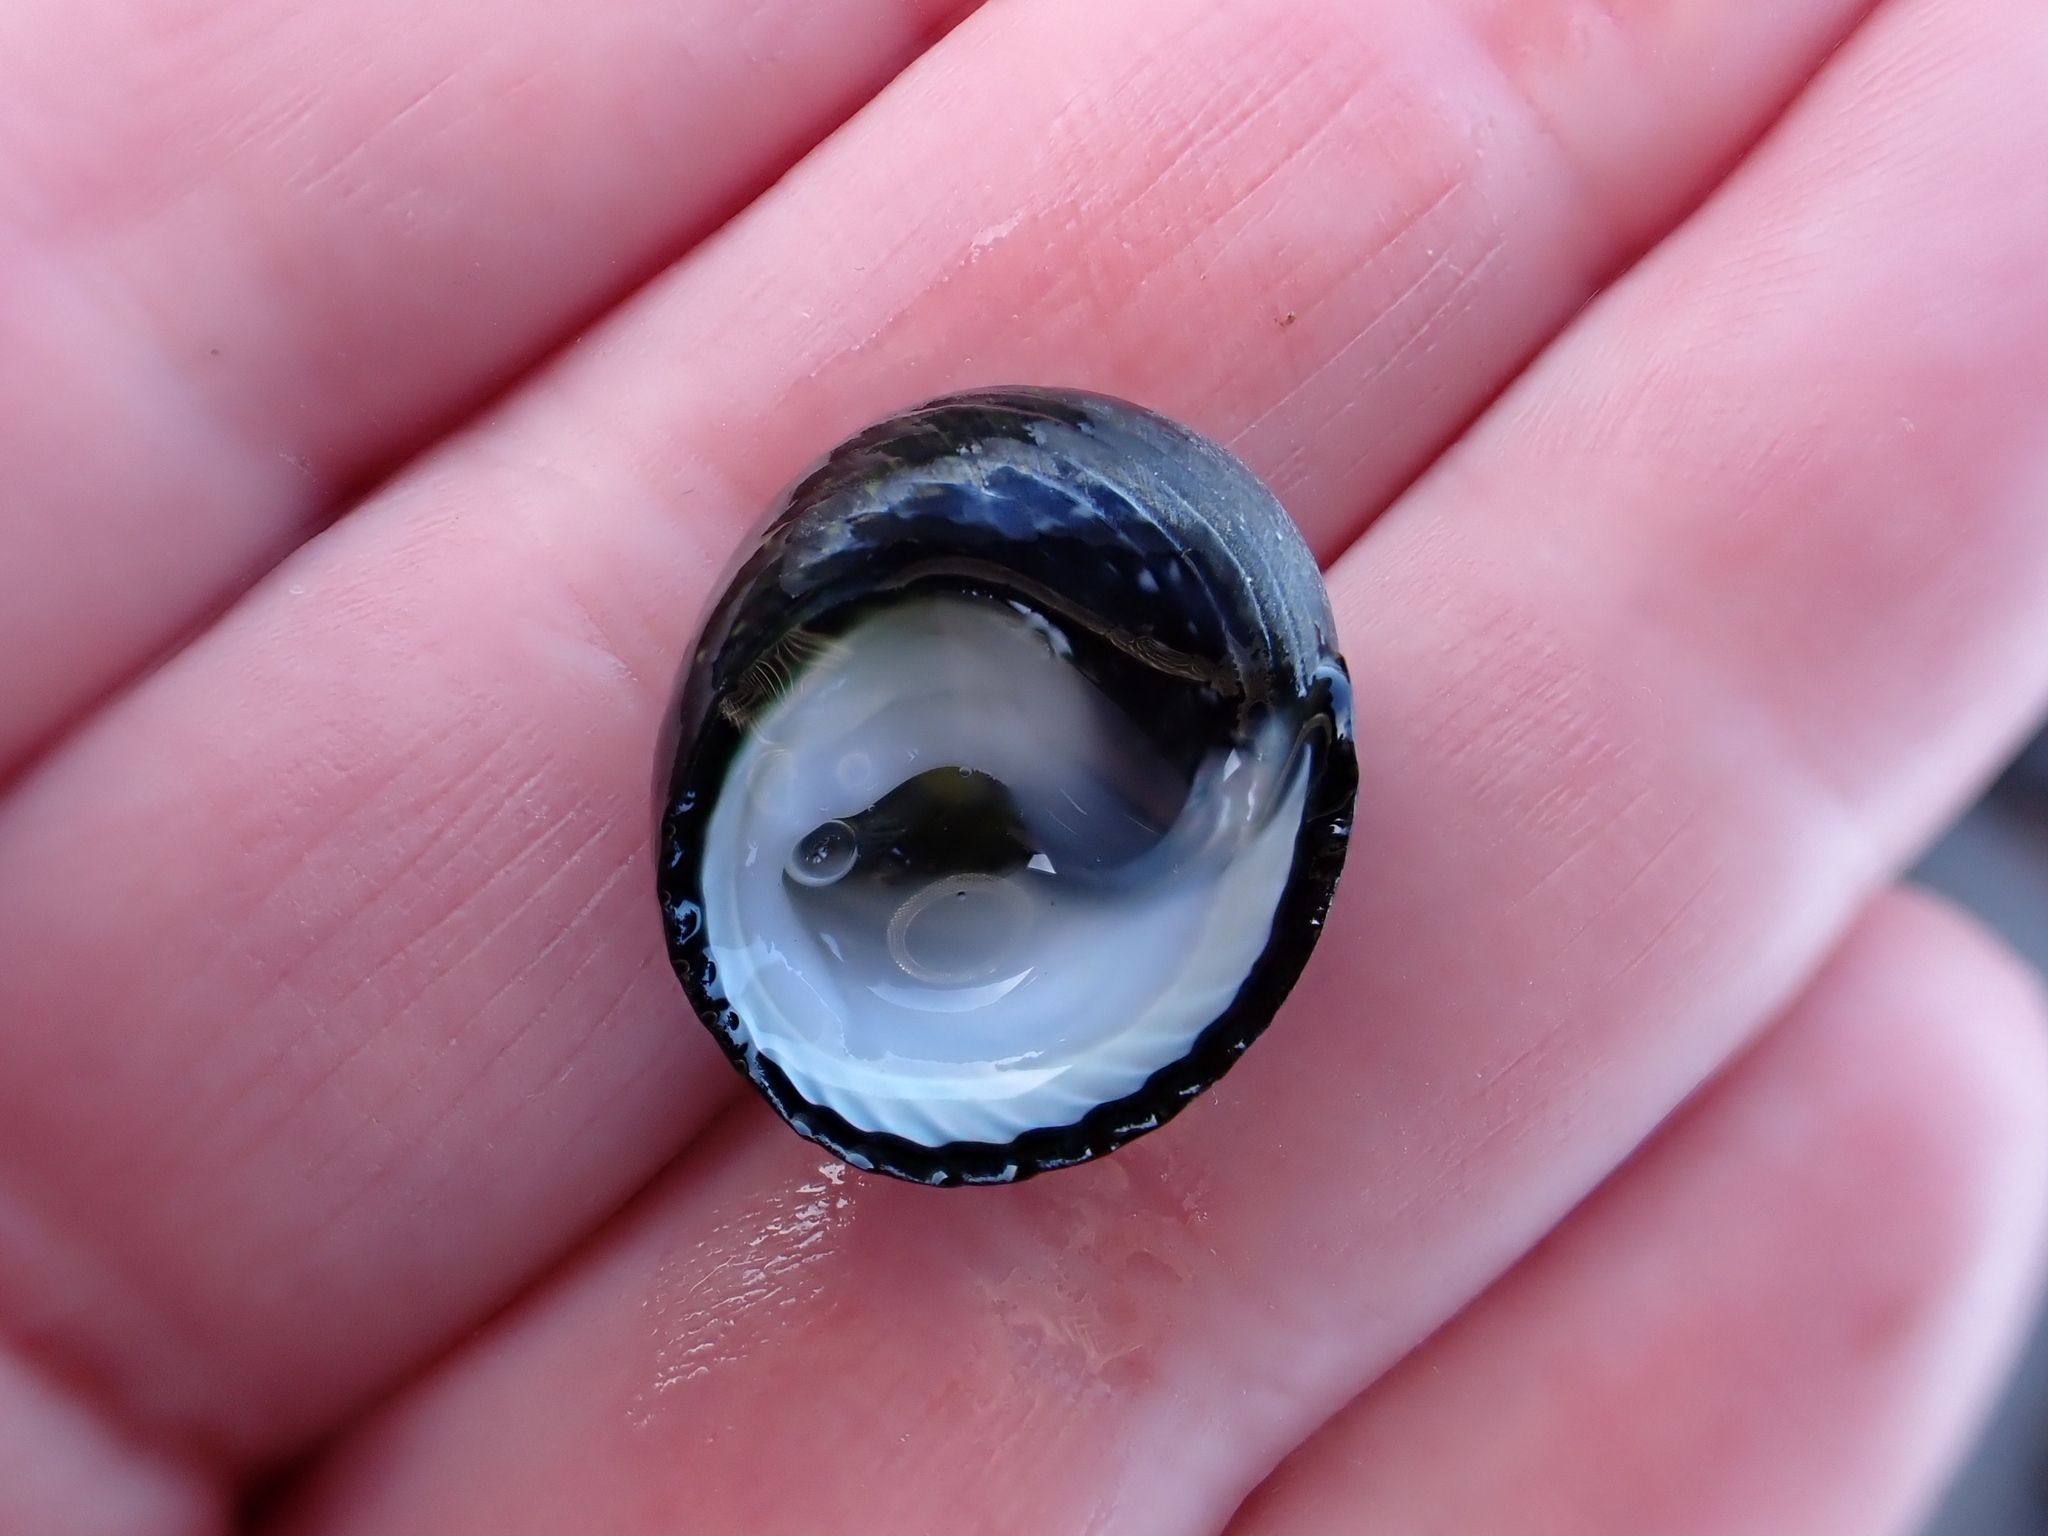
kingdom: Animalia
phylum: Mollusca
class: Gastropoda
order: Trochida
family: Trochidae
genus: Diloma
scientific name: Diloma zelandicum
